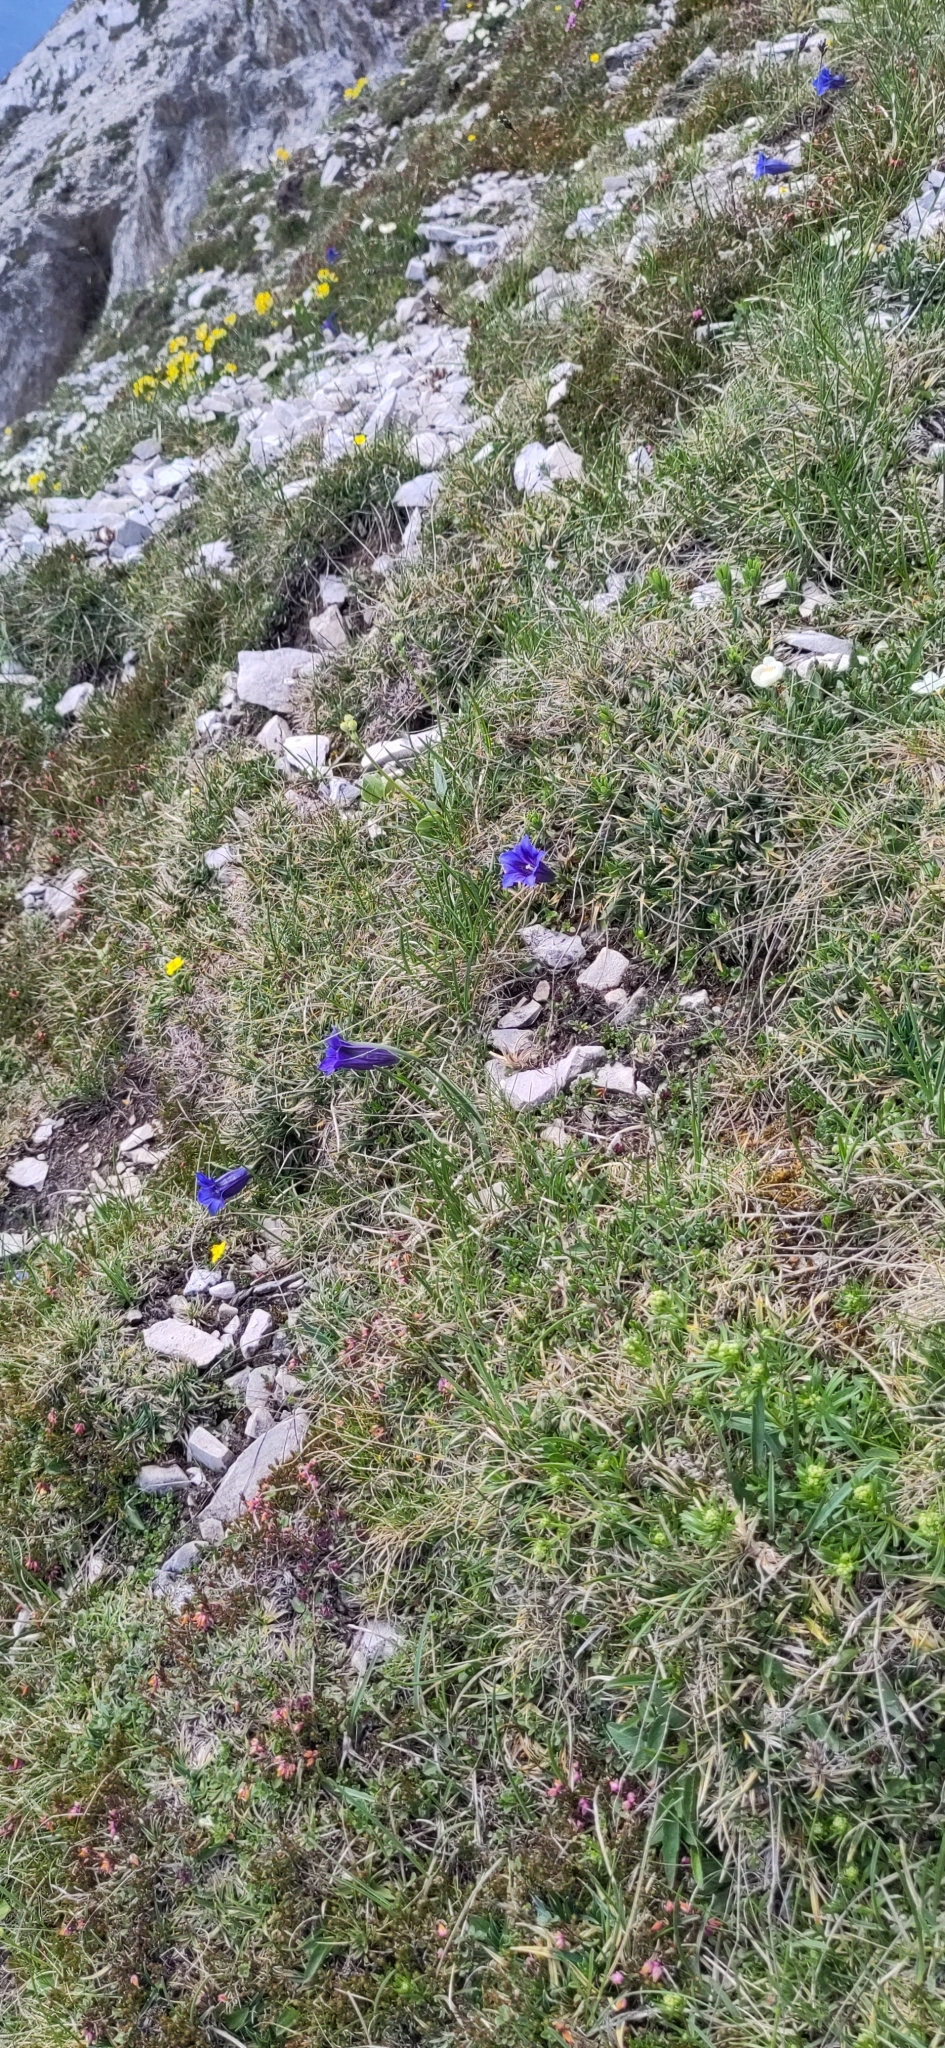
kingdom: Plantae
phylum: Tracheophyta
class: Magnoliopsida
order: Gentianales
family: Gentianaceae
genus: Gentiana
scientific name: Gentiana clusii
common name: Trumpet gentian
